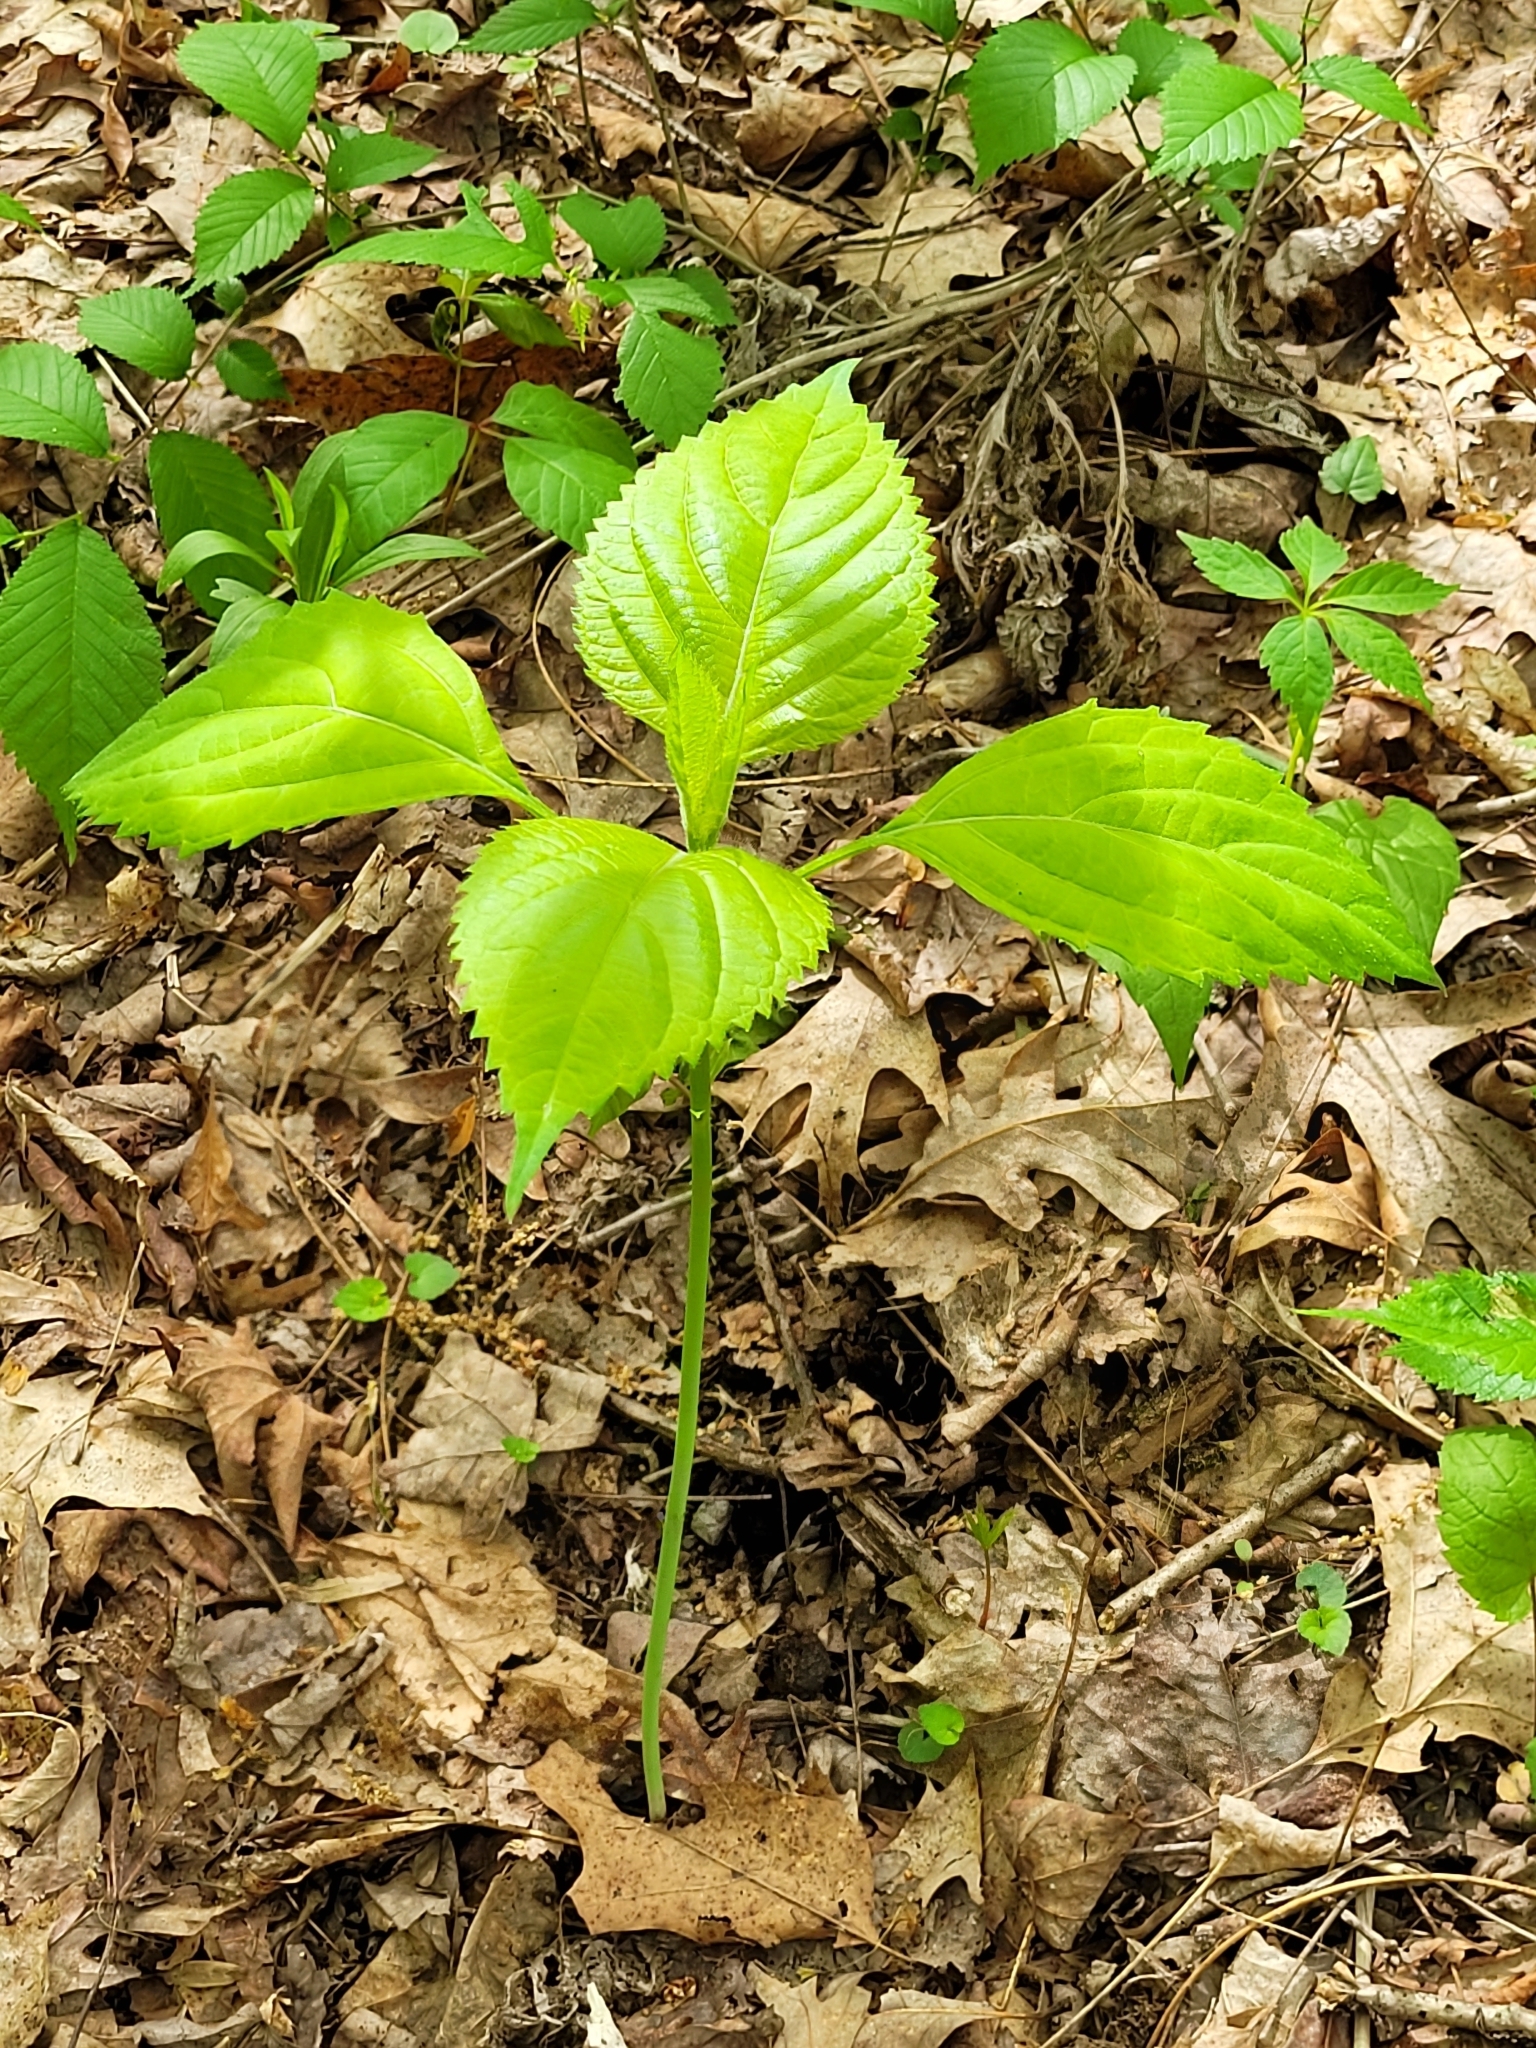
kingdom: Plantae
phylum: Tracheophyta
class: Magnoliopsida
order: Rosales
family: Urticaceae
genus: Laportea
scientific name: Laportea canadensis
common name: Canada nettle
